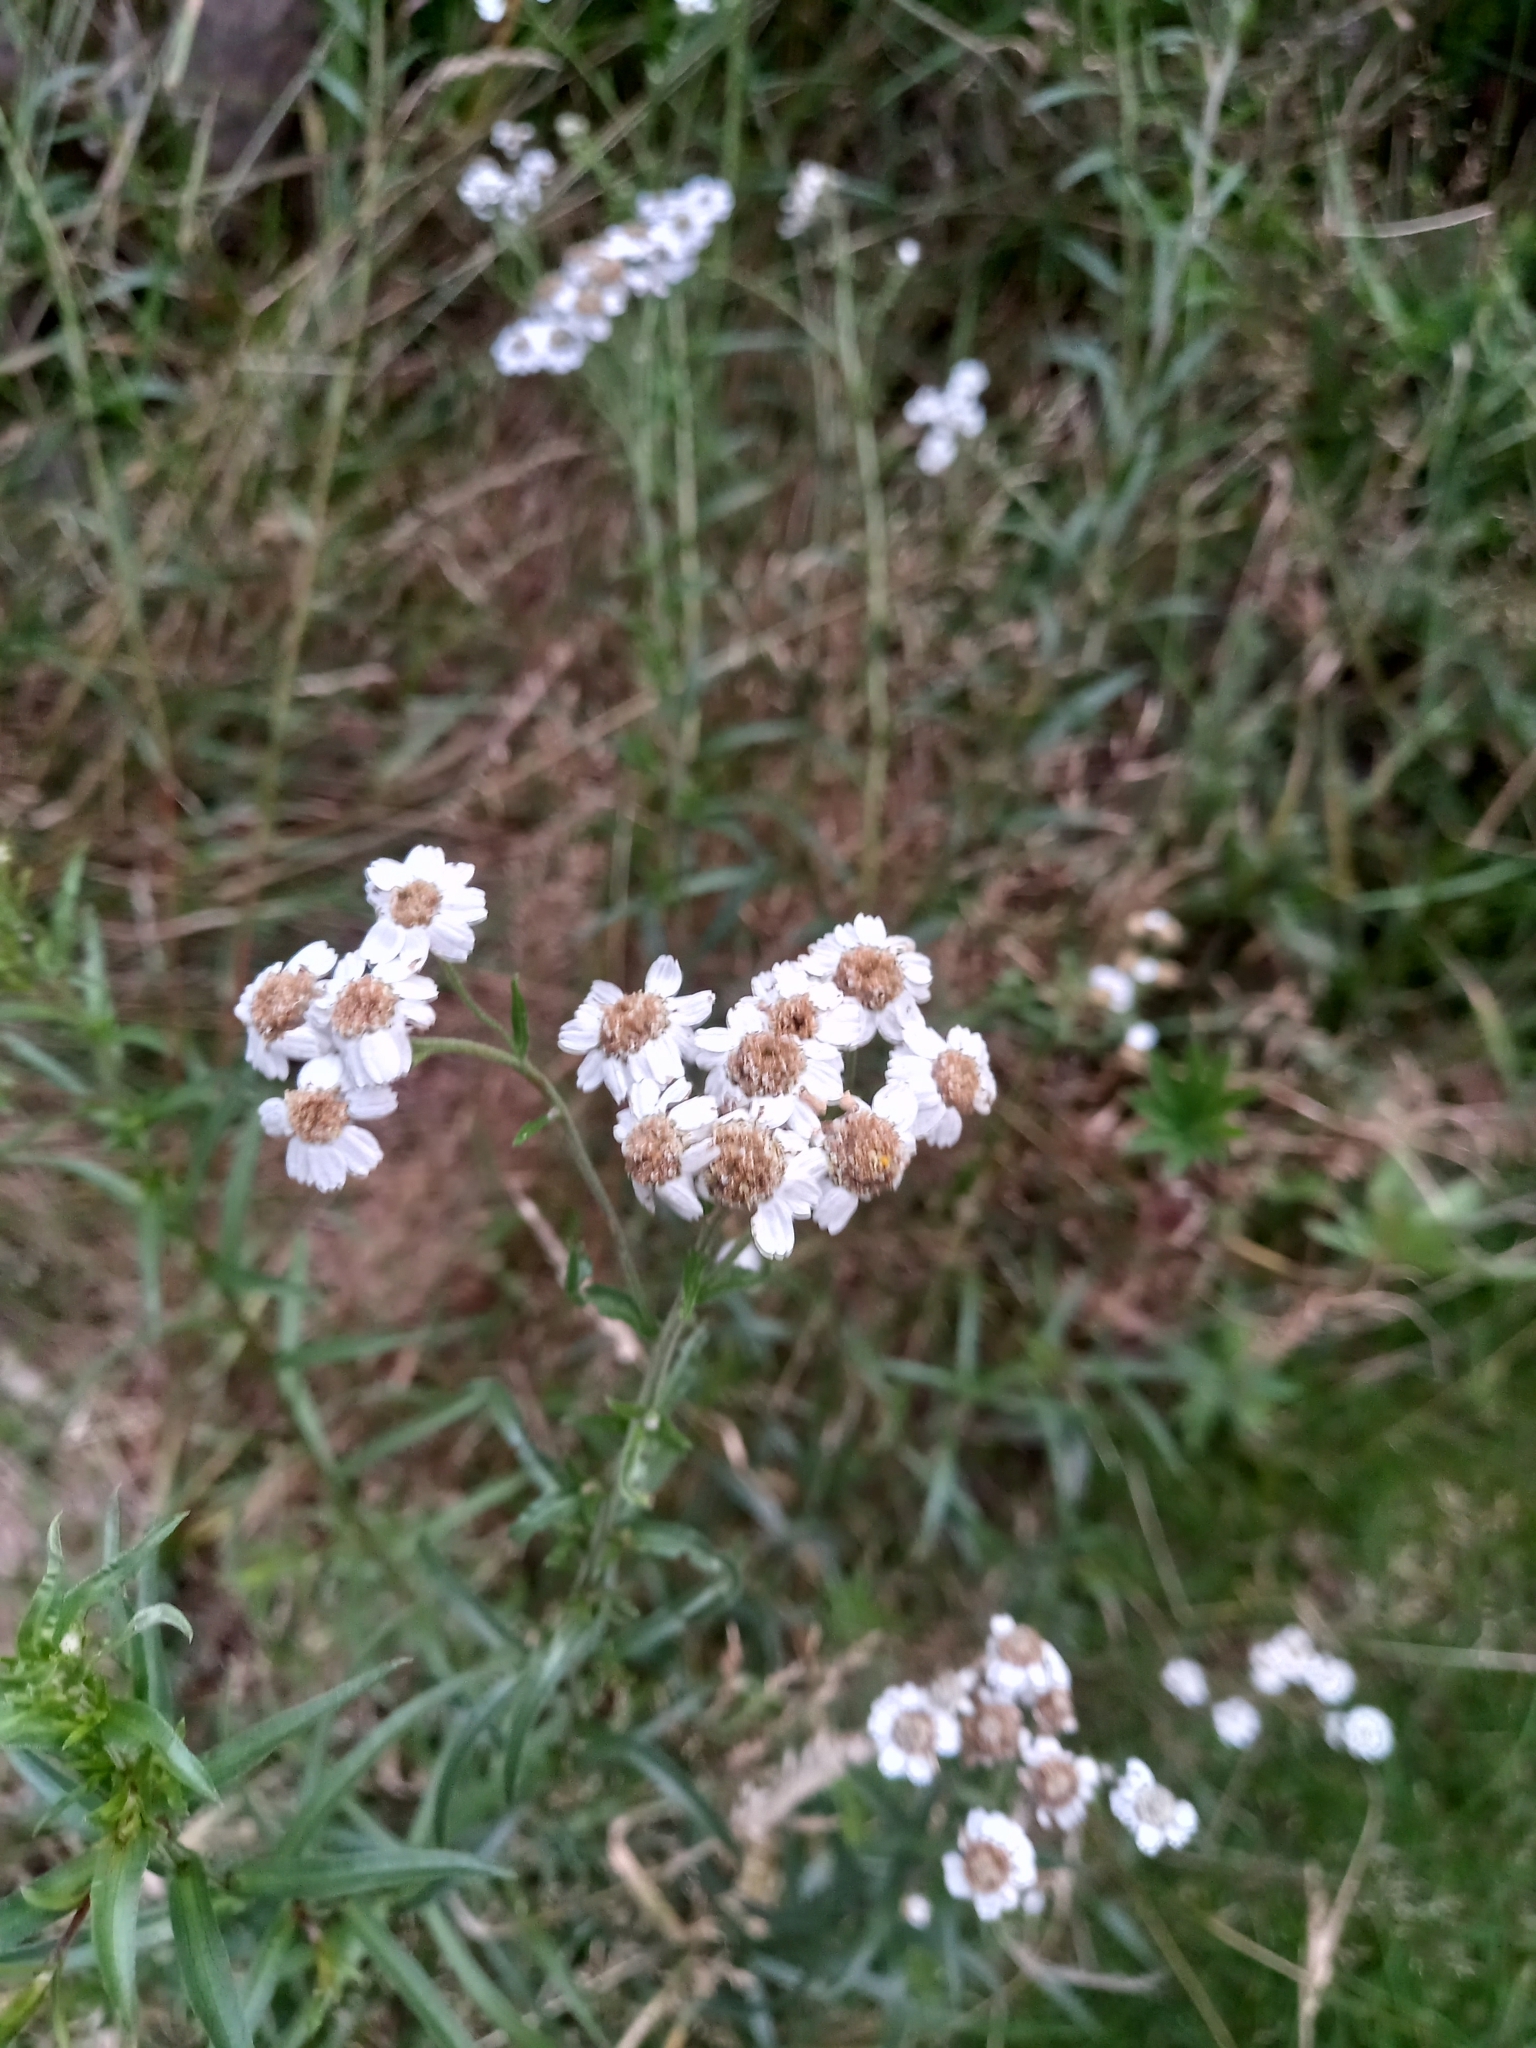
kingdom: Plantae
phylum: Tracheophyta
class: Magnoliopsida
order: Asterales
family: Asteraceae
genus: Achillea
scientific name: Achillea ptarmica
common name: Sneezeweed
